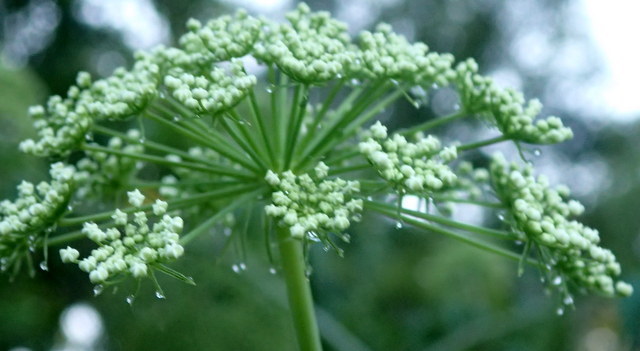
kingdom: Plantae
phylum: Tracheophyta
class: Magnoliopsida
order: Apiales
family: Apiaceae
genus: Cicuta
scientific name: Cicuta maculata
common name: Spotted cowbane
